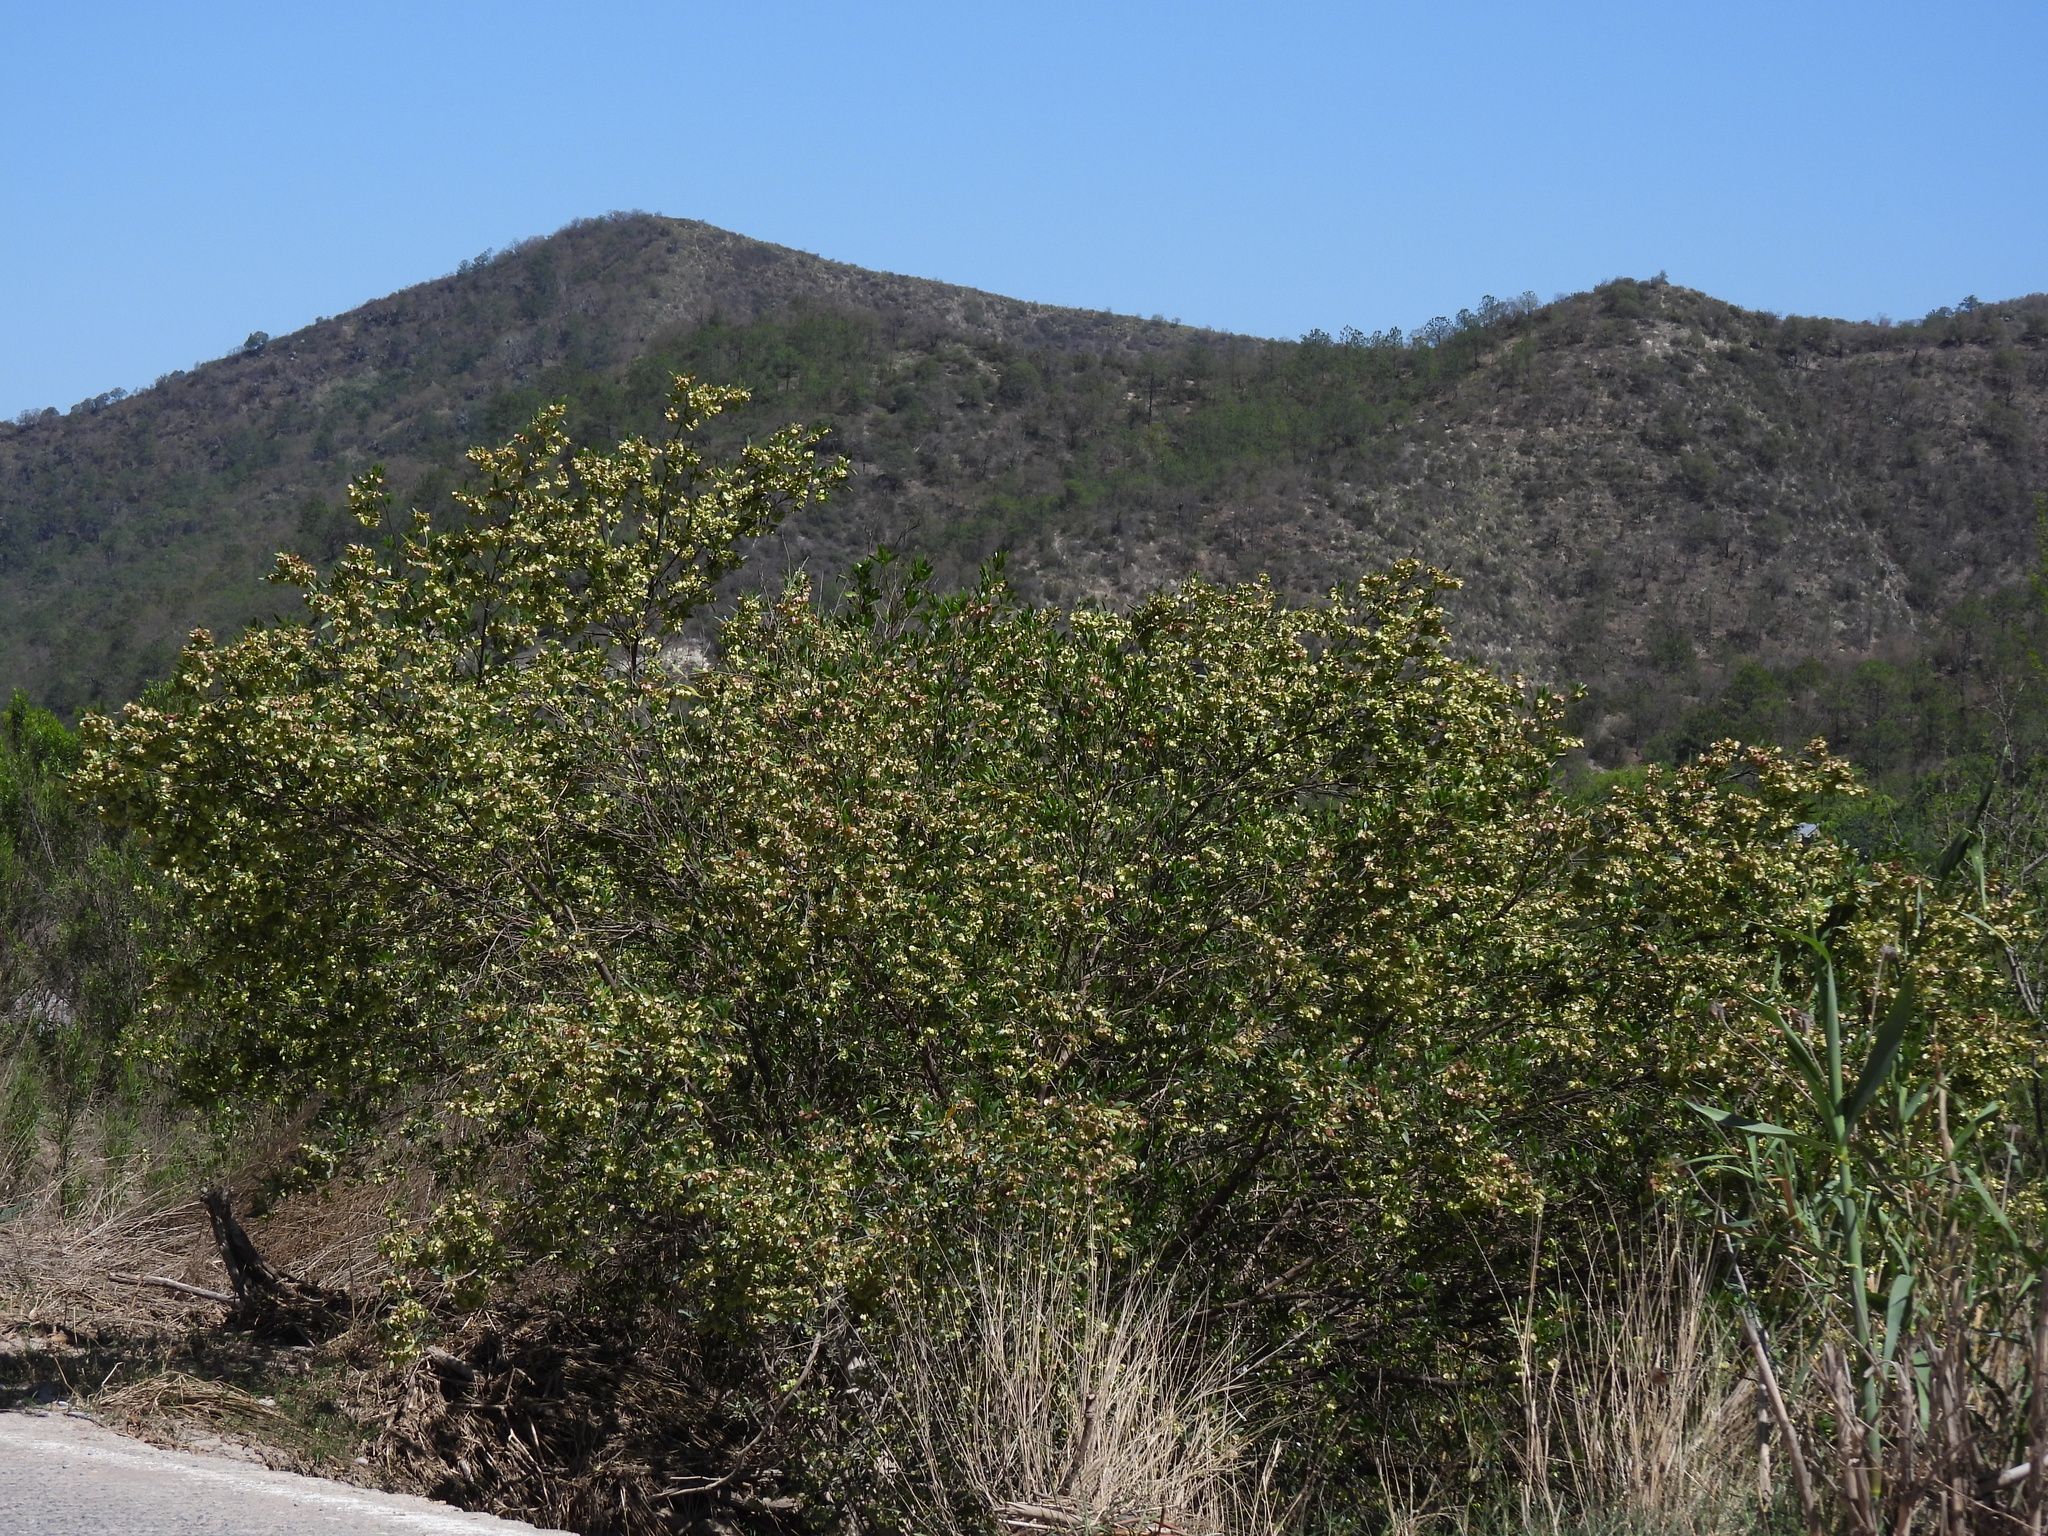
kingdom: Plantae
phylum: Tracheophyta
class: Magnoliopsida
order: Sapindales
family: Sapindaceae
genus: Dodonaea
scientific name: Dodonaea viscosa
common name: Hopbush
